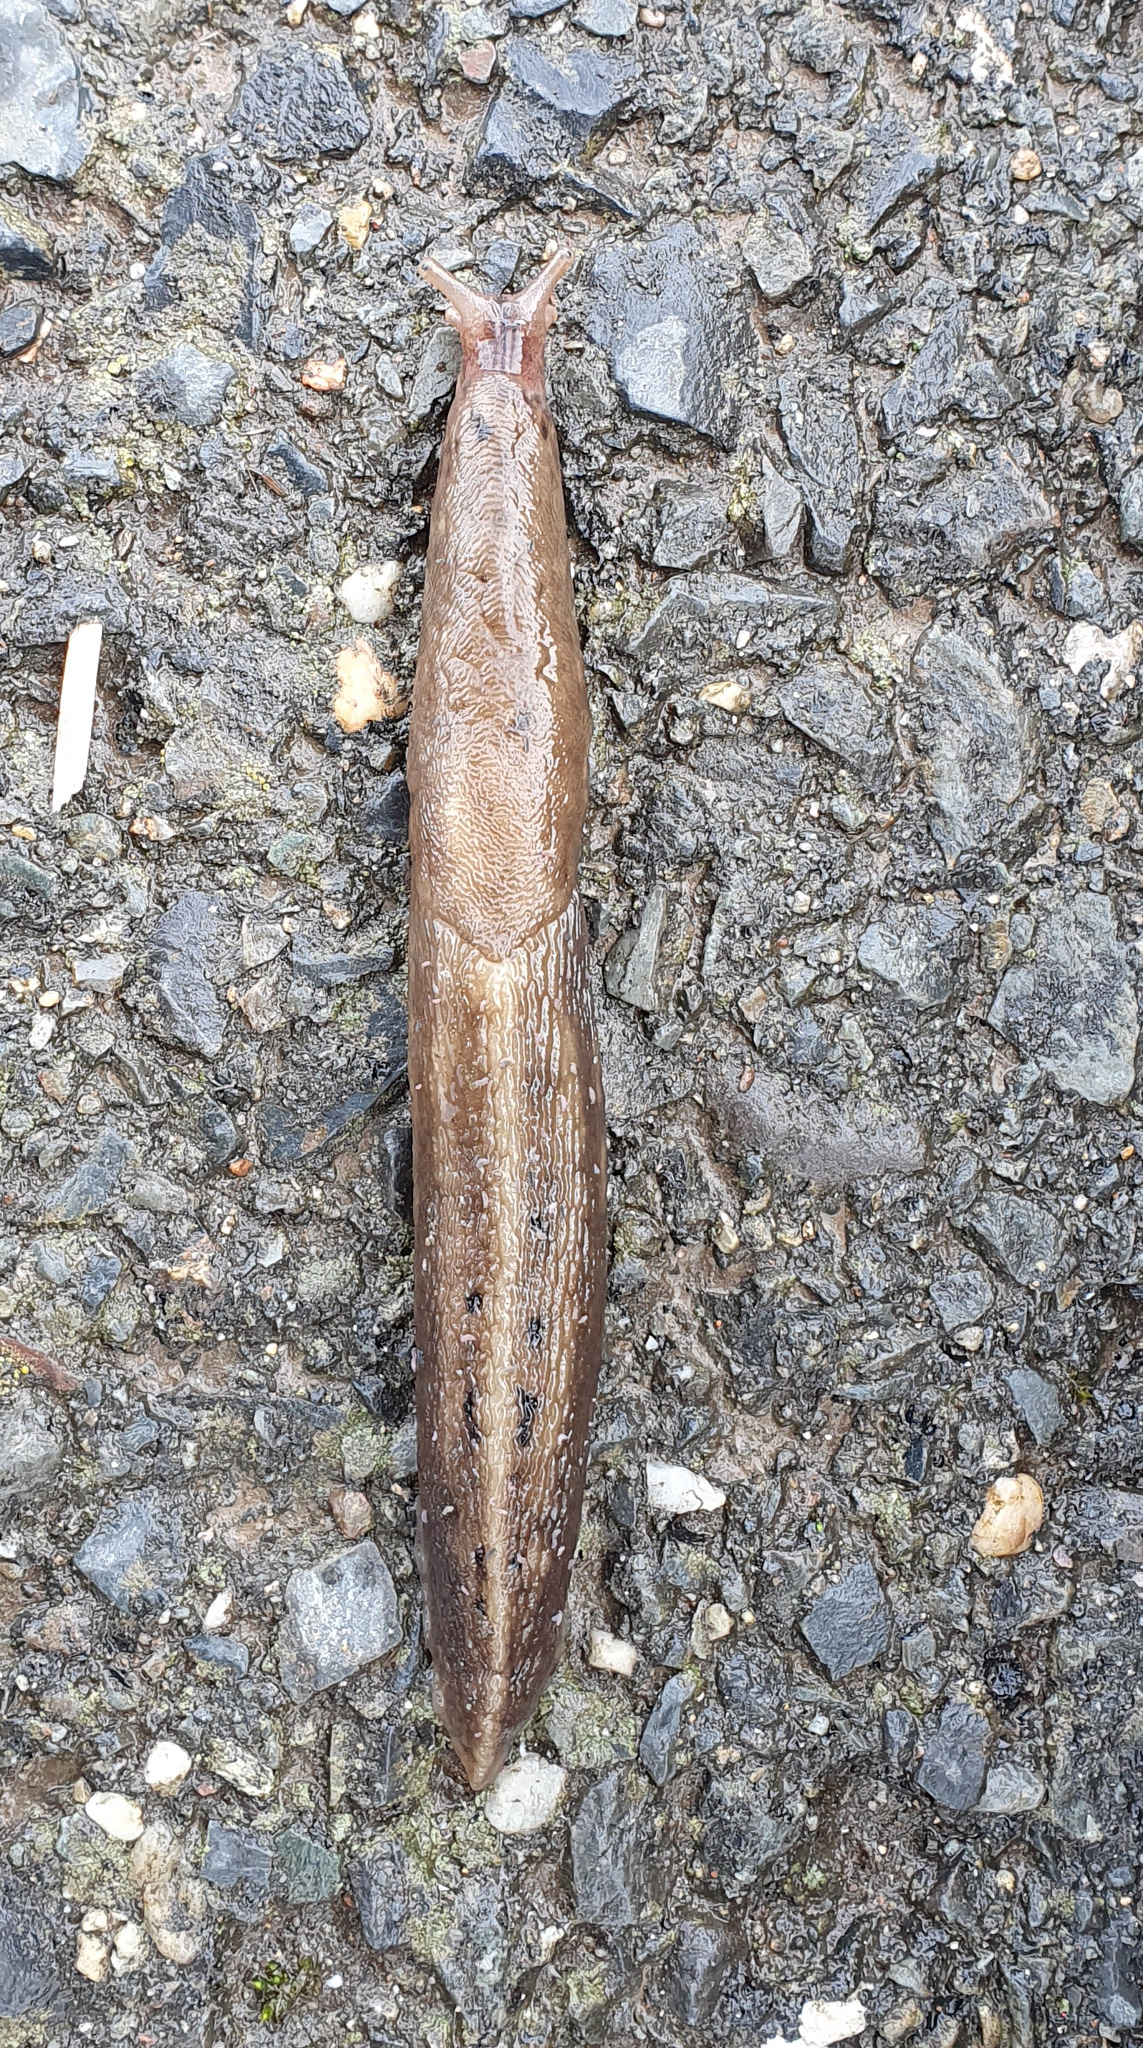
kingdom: Animalia
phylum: Mollusca
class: Gastropoda
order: Stylommatophora
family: Limacidae
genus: Limax
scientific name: Limax cinereoniger
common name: Ash-black slug
